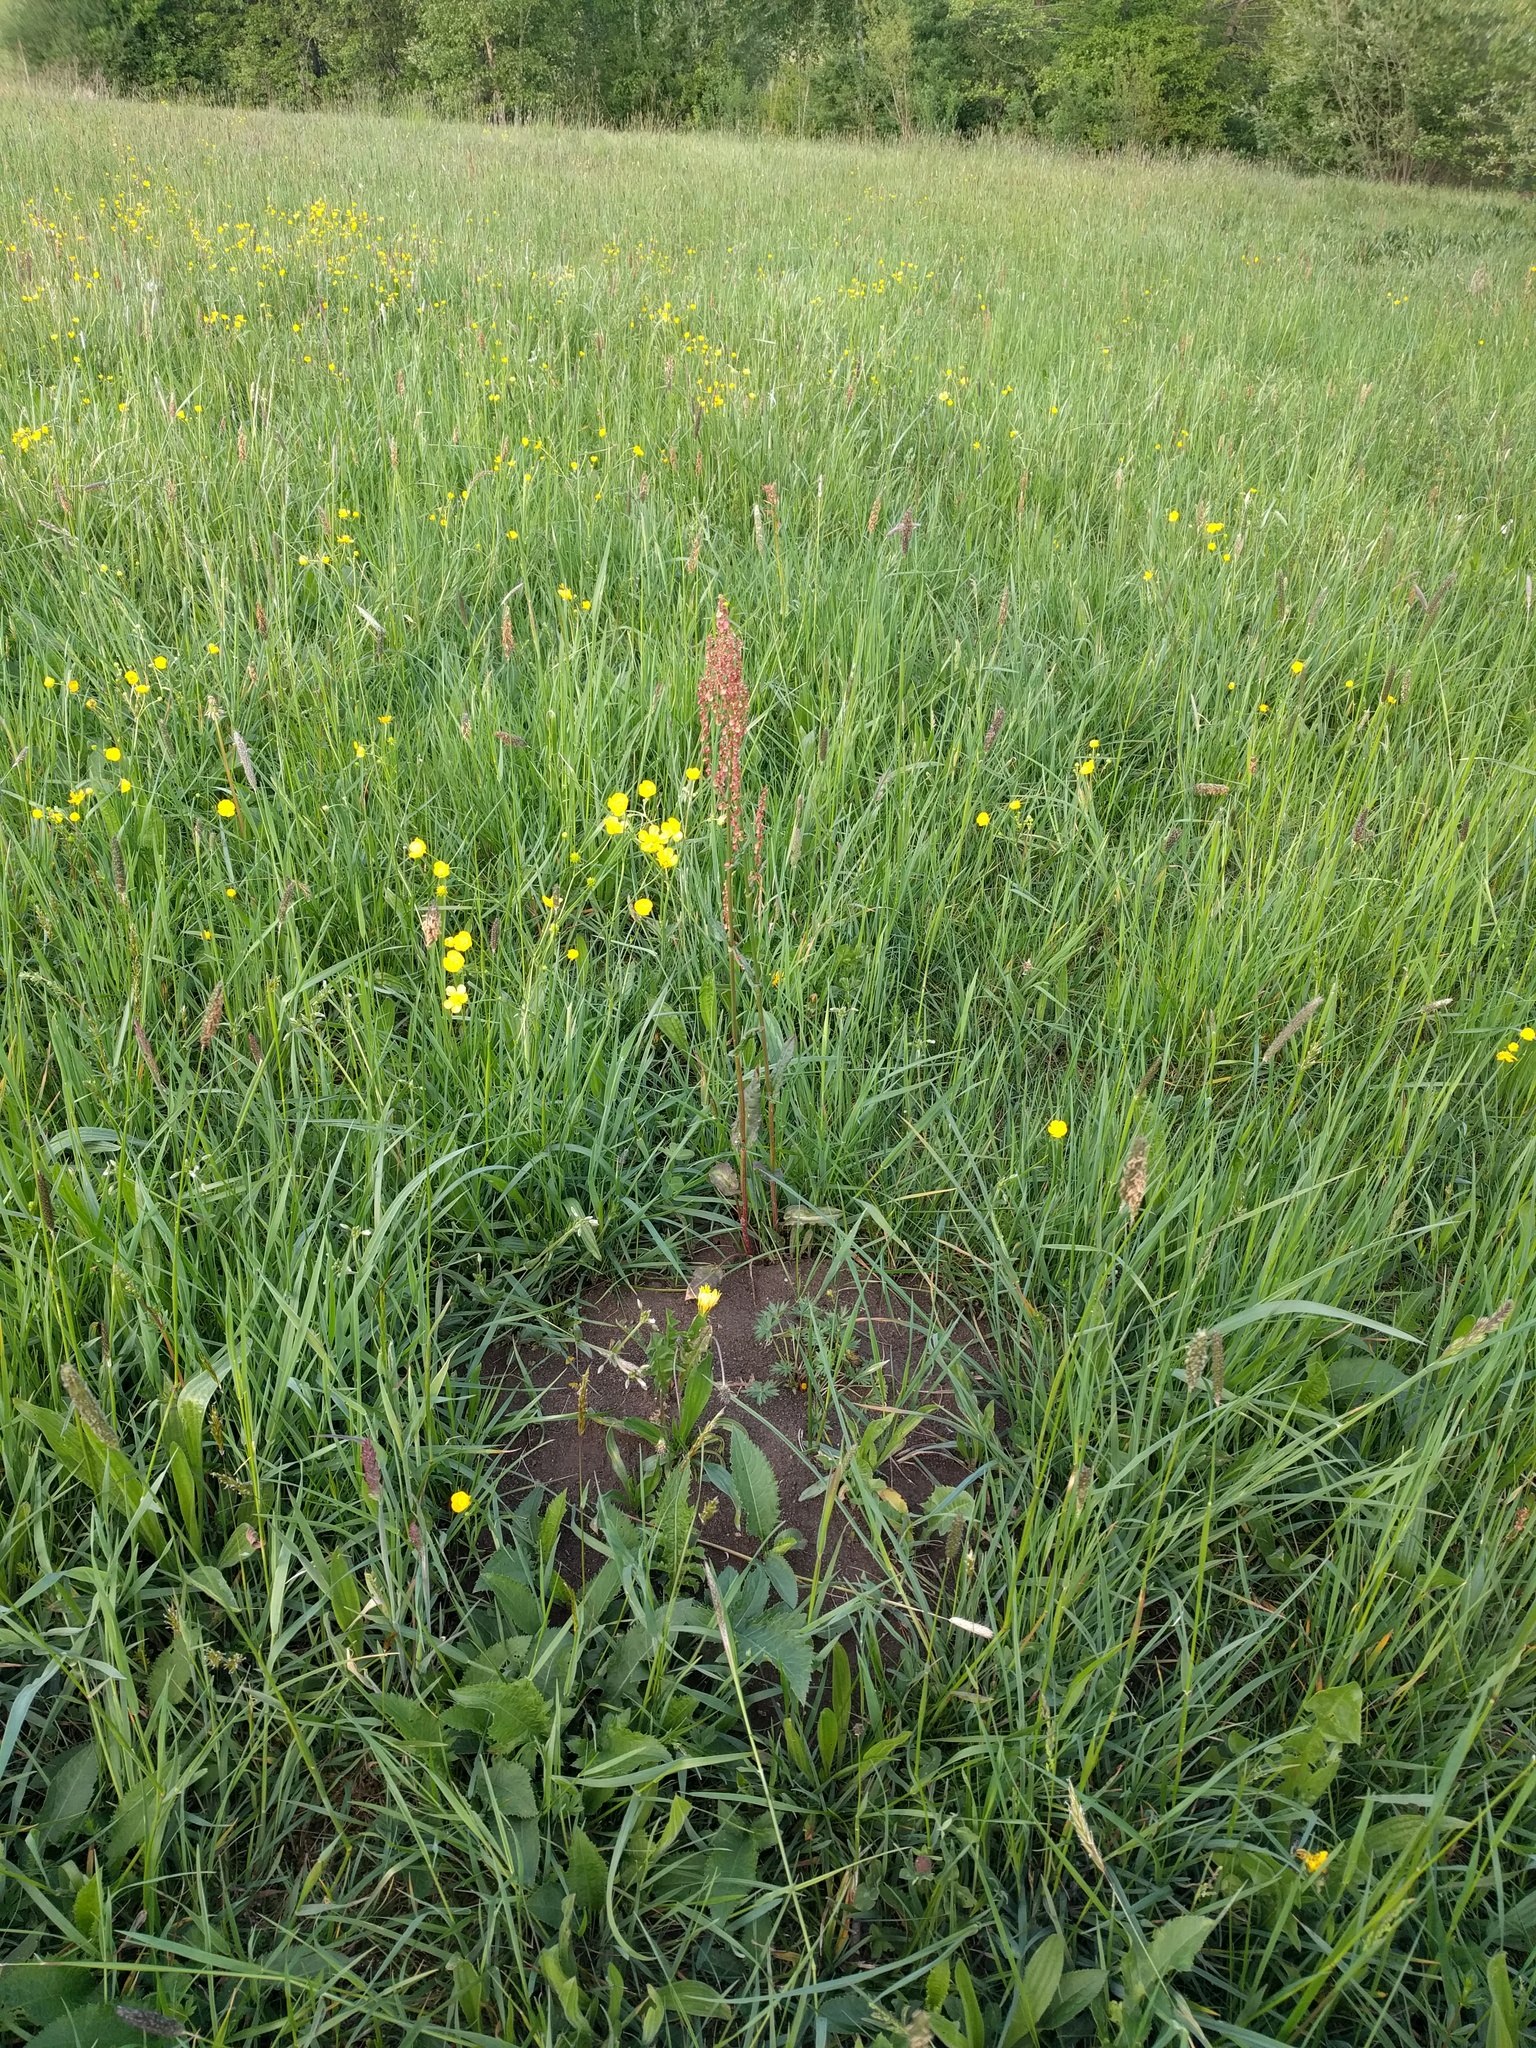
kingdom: Plantae
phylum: Tracheophyta
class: Magnoliopsida
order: Caryophyllales
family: Polygonaceae
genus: Rumex
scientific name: Rumex acetosa
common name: Garden sorrel
